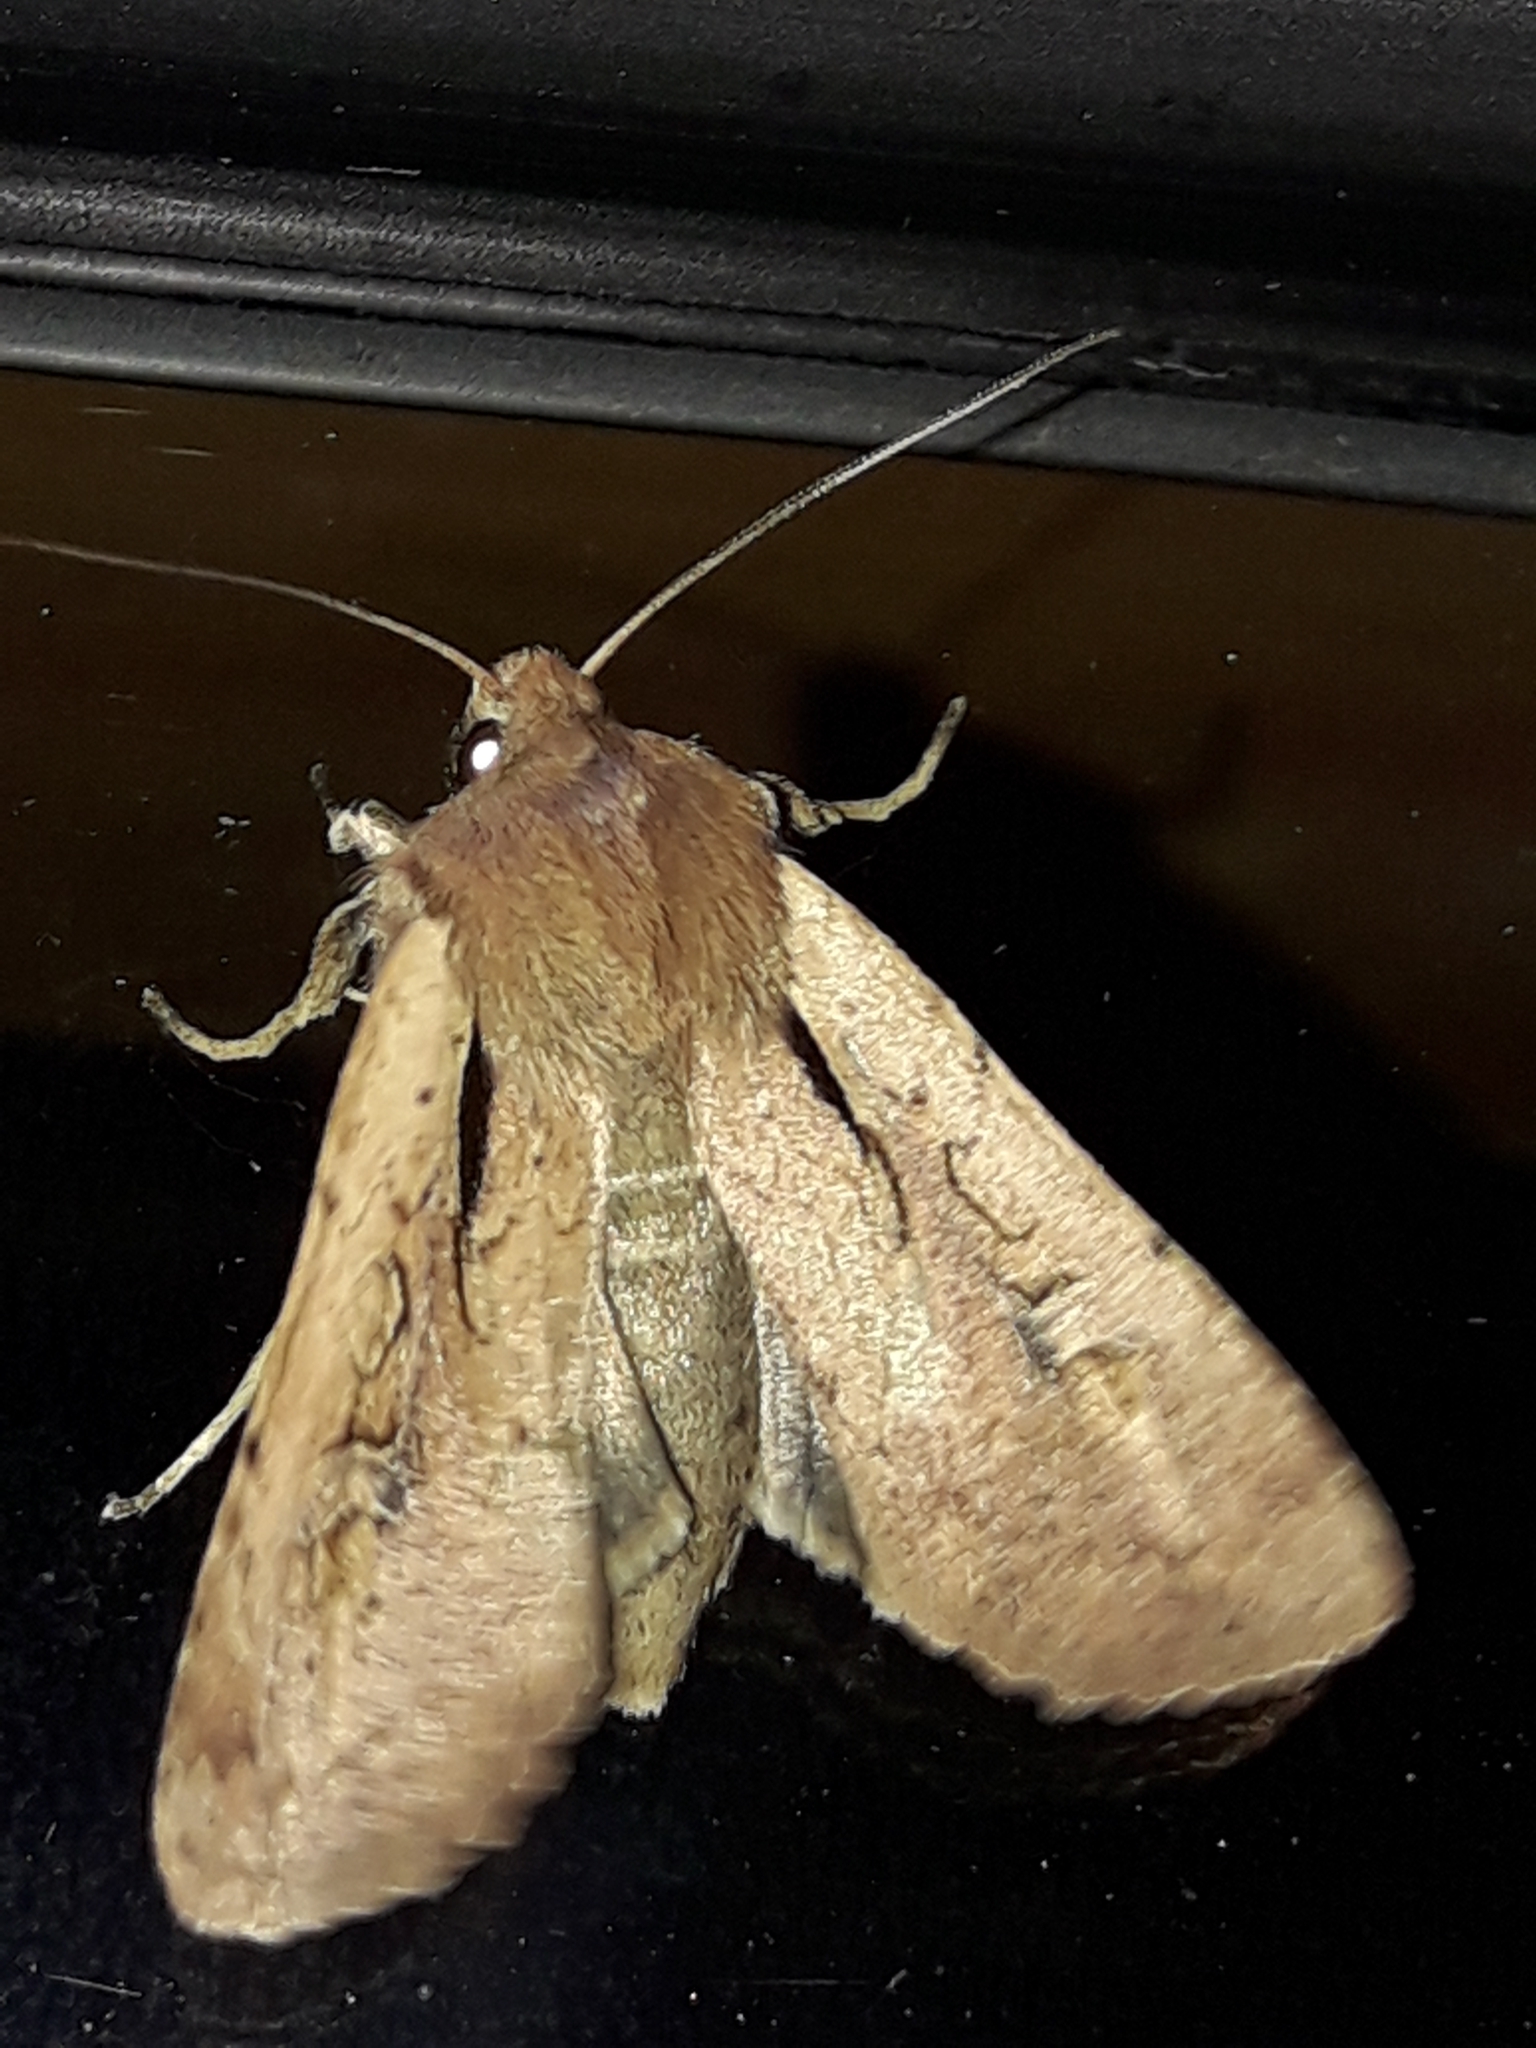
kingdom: Animalia
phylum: Arthropoda
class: Insecta
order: Lepidoptera
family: Noctuidae
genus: Ichneutica
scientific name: Ichneutica atristriga
